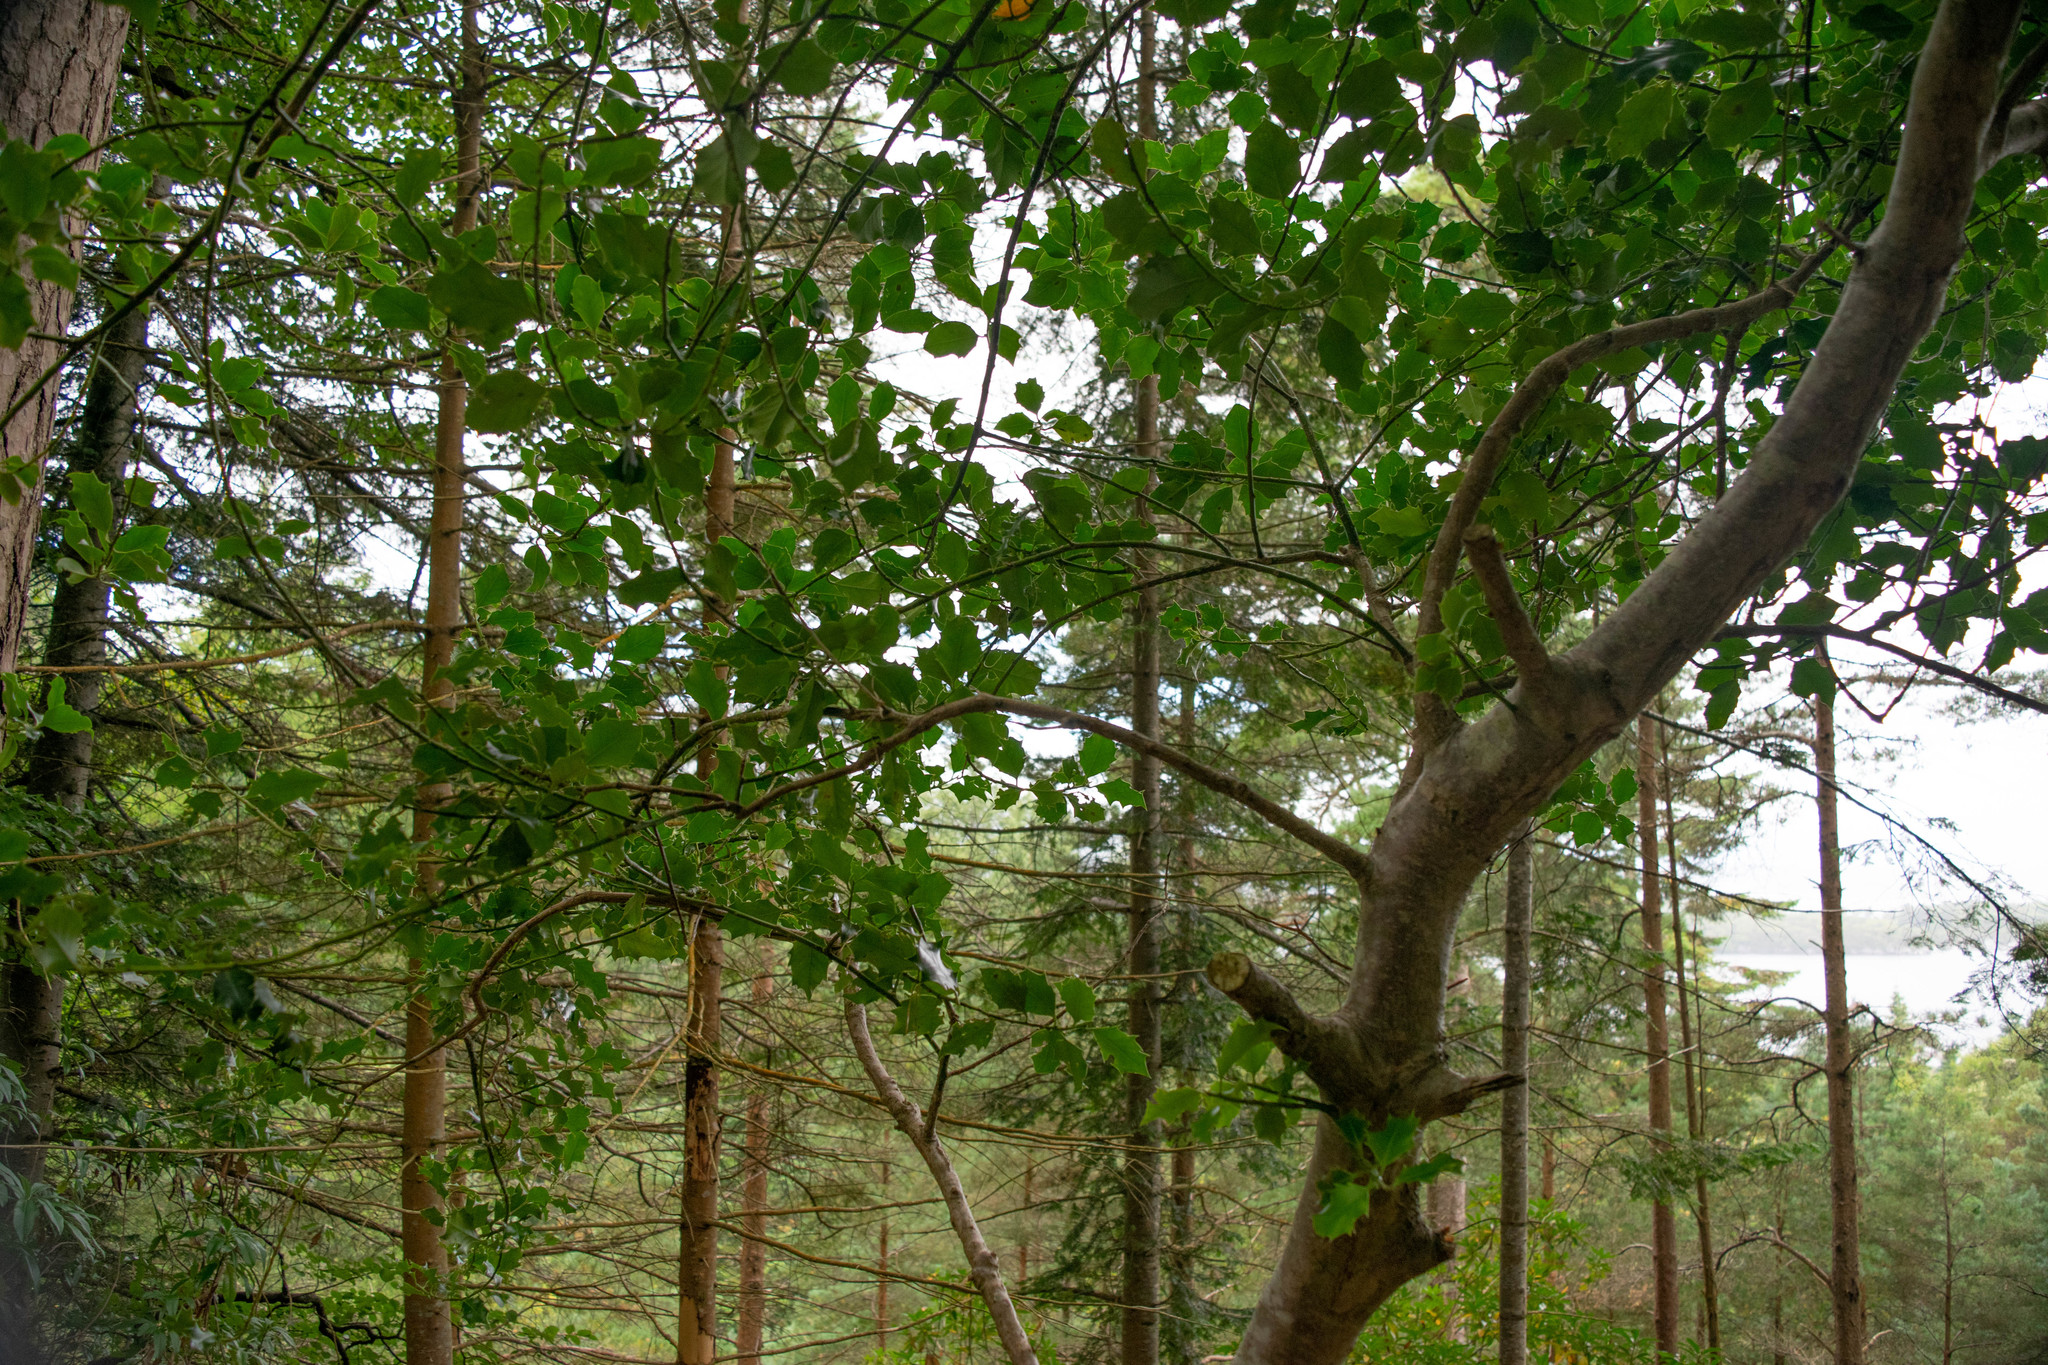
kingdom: Plantae
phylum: Tracheophyta
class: Magnoliopsida
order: Aquifoliales
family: Aquifoliaceae
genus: Ilex
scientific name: Ilex aquifolium
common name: English holly
